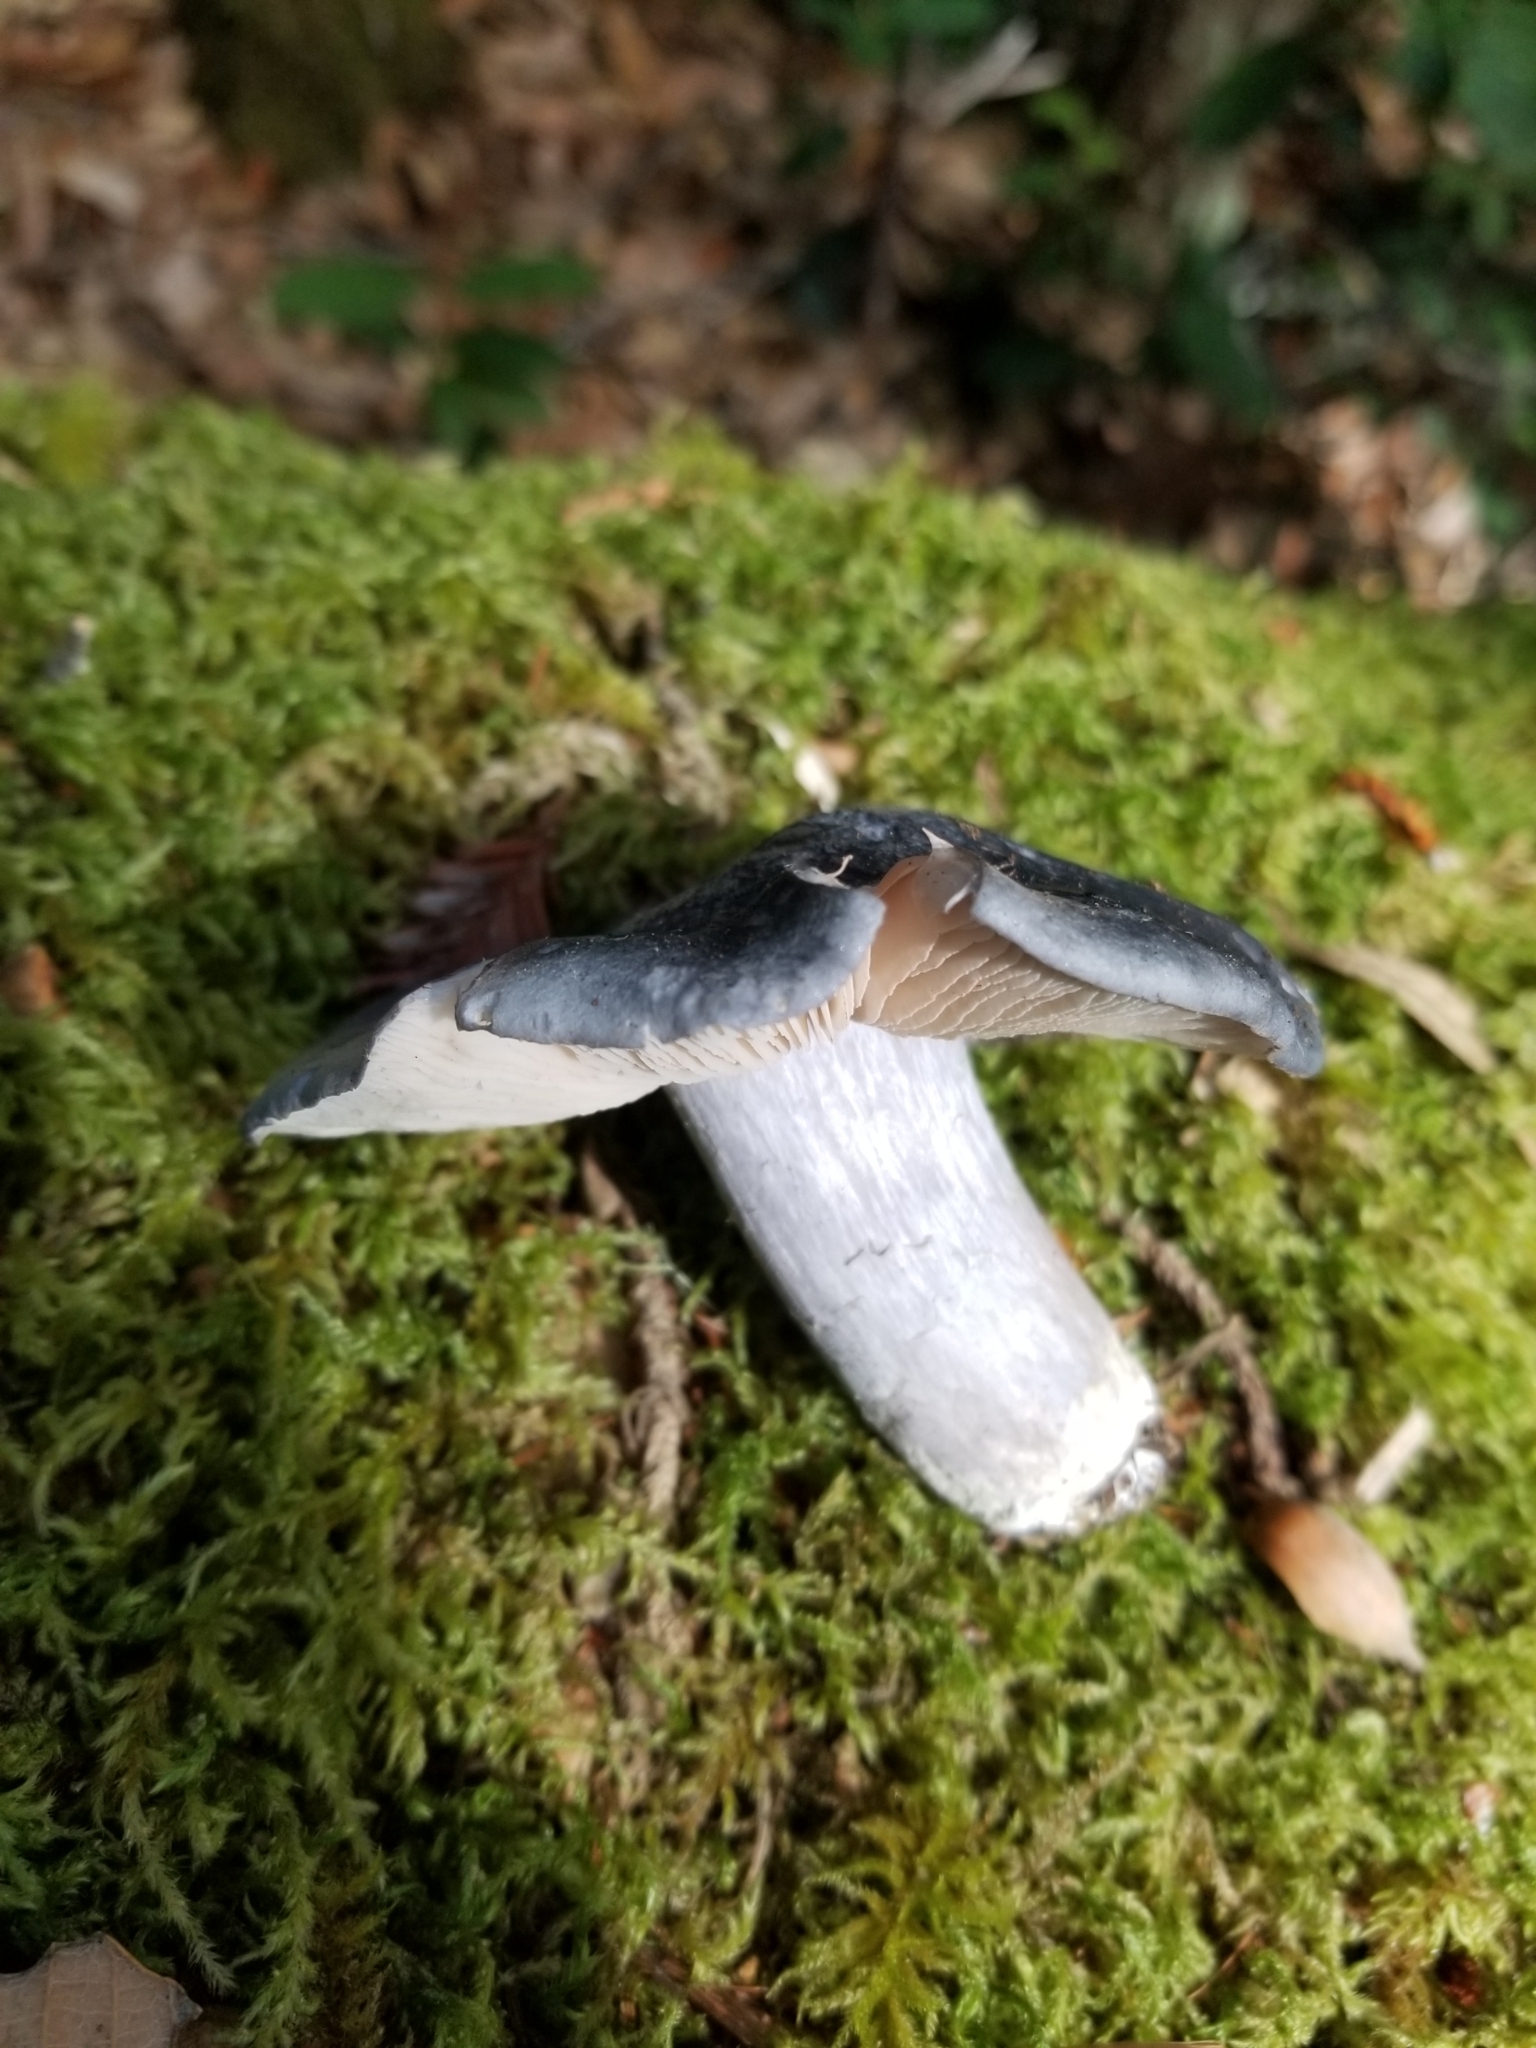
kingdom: Fungi
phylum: Basidiomycota
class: Agaricomycetes
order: Agaricales
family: Entolomataceae
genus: Entoloma
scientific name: Entoloma medianox
